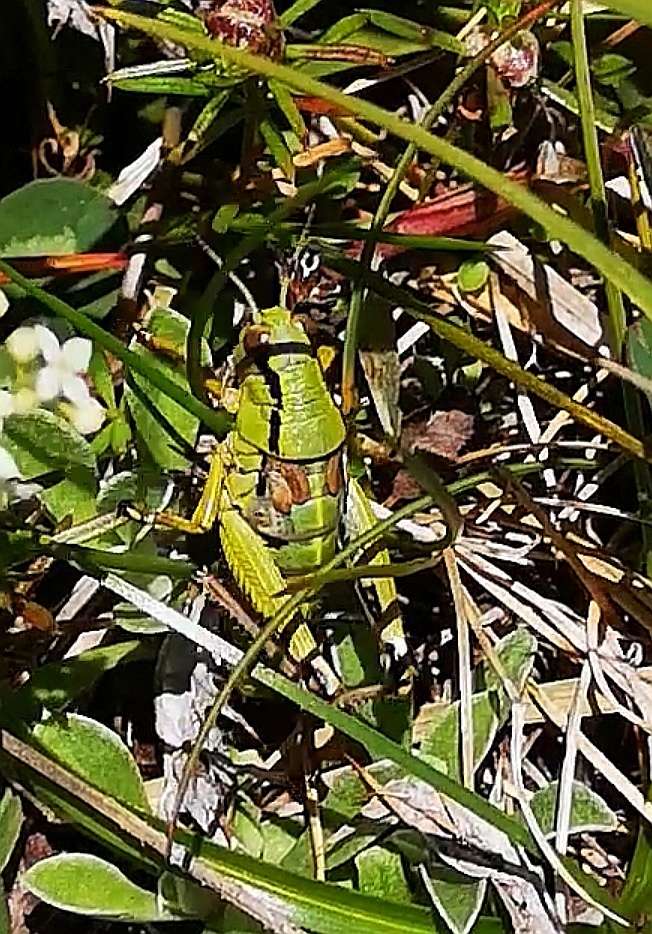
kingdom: Animalia
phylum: Arthropoda
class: Insecta
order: Orthoptera
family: Acrididae
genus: Miramella
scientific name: Miramella
